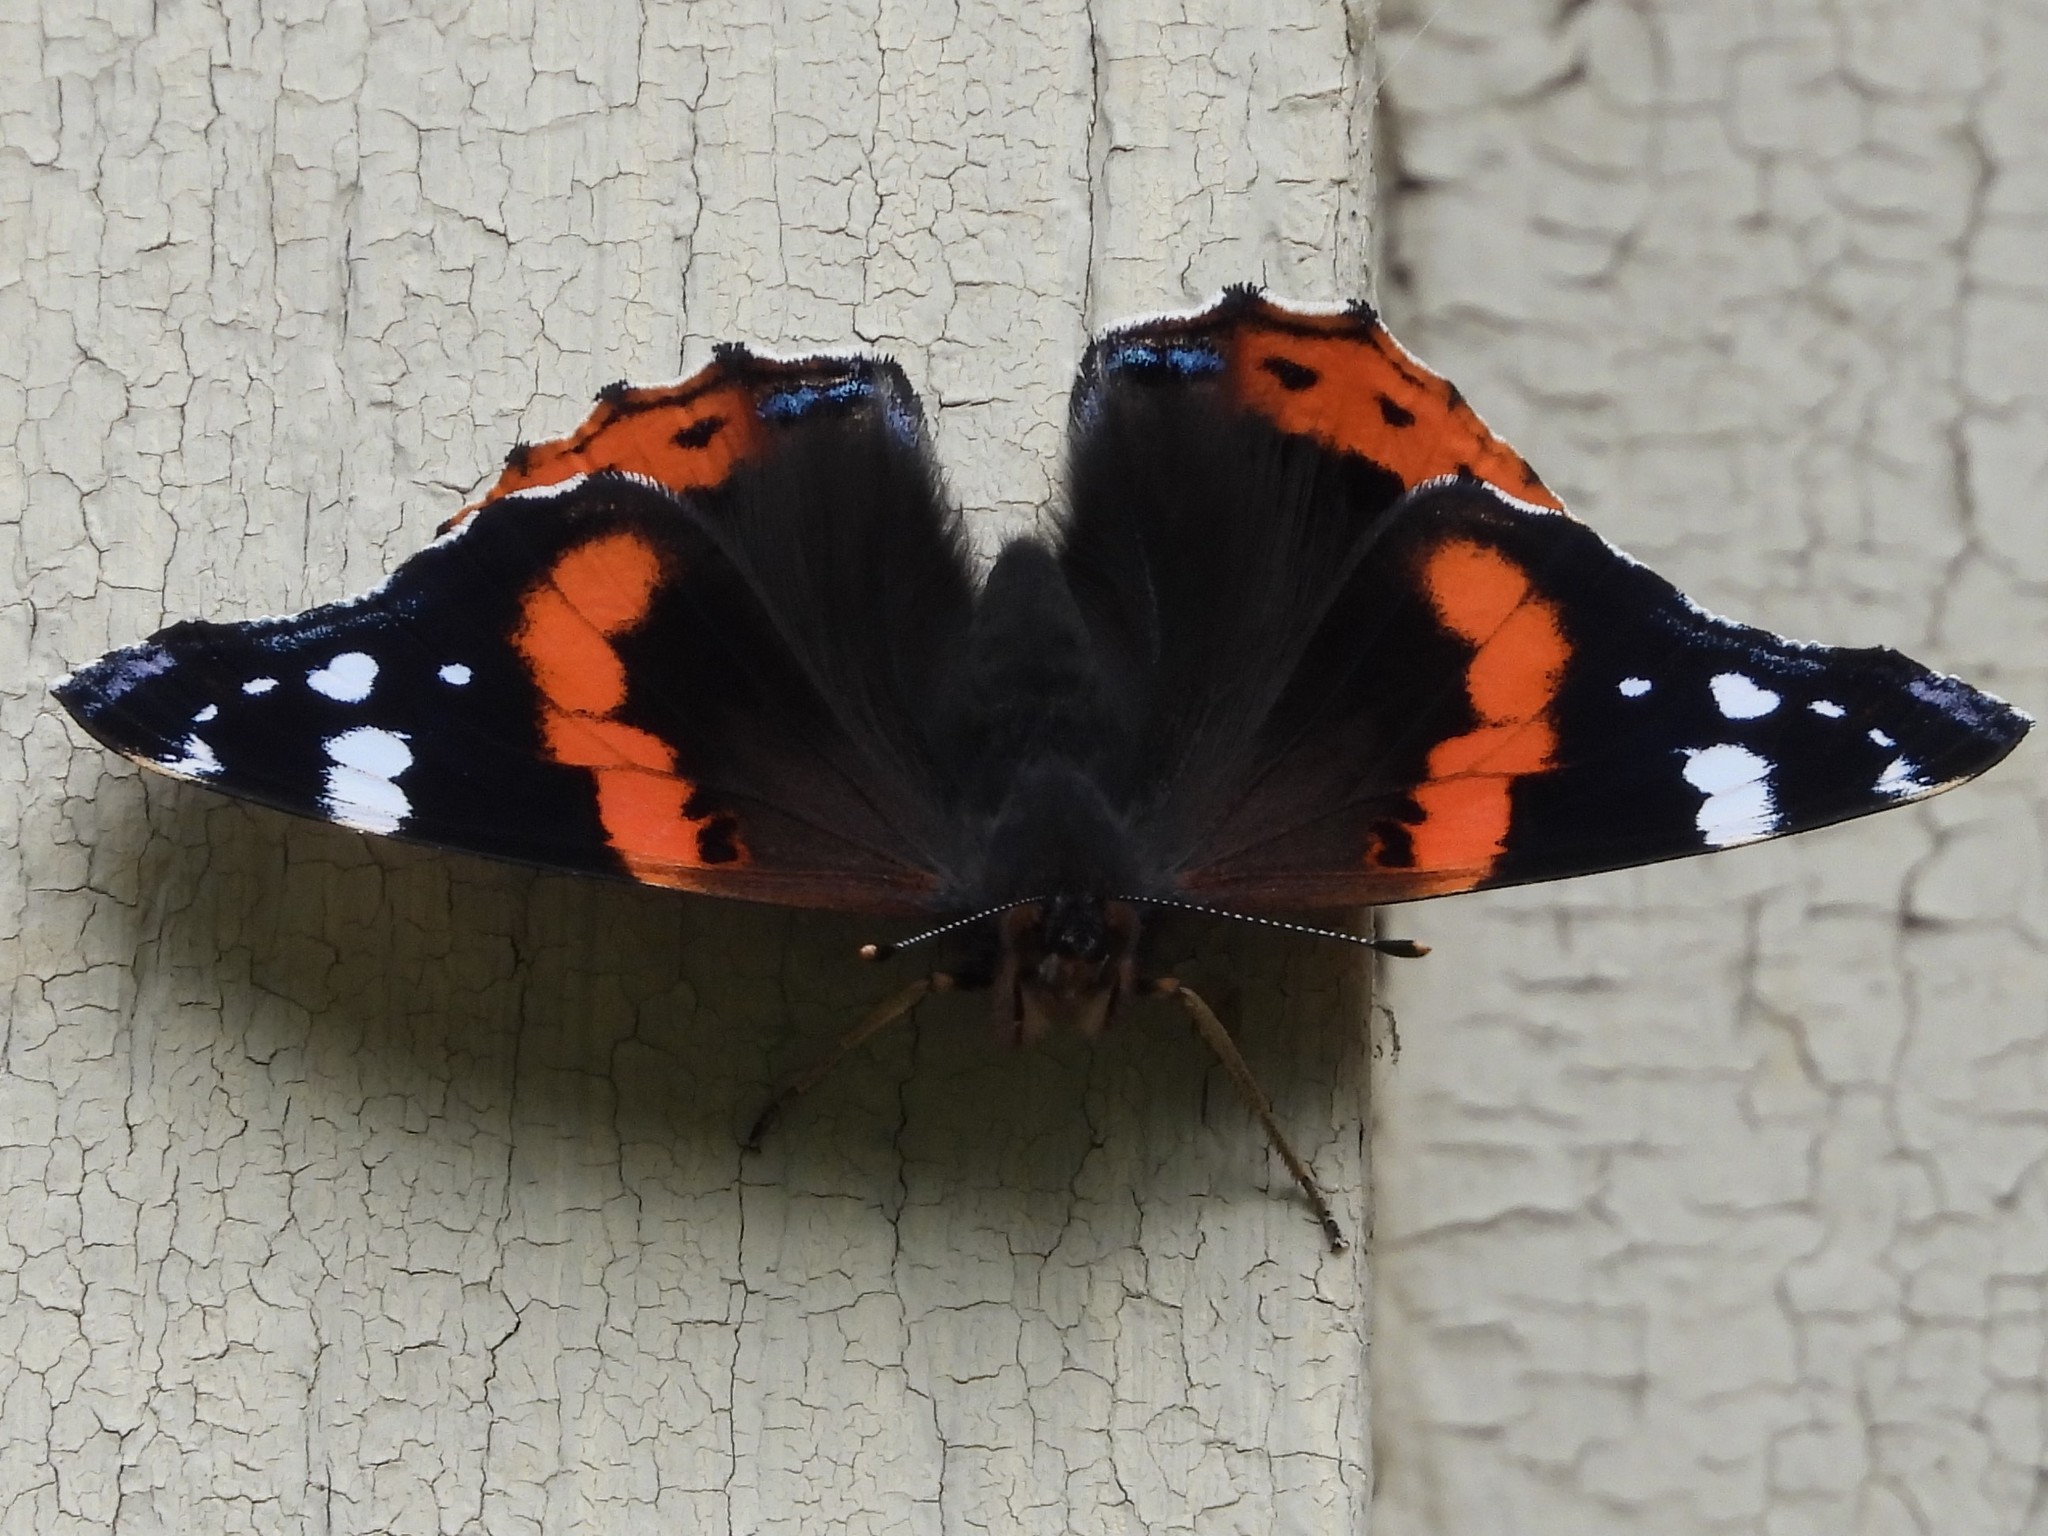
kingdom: Animalia
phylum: Arthropoda
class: Insecta
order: Lepidoptera
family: Nymphalidae
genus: Vanessa
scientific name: Vanessa atalanta
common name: Red admiral
